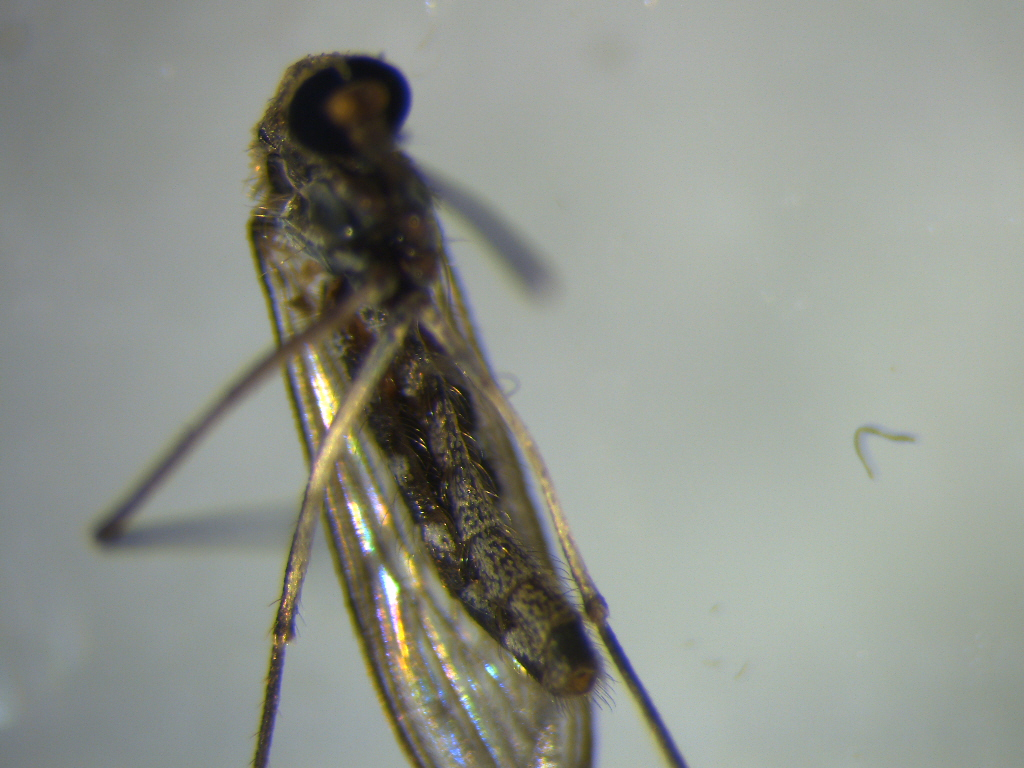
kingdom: Animalia
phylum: Arthropoda
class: Insecta
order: Diptera
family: Culicidae
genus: Culex
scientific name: Culex quinquefasciatus
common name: Southern house mosquito
